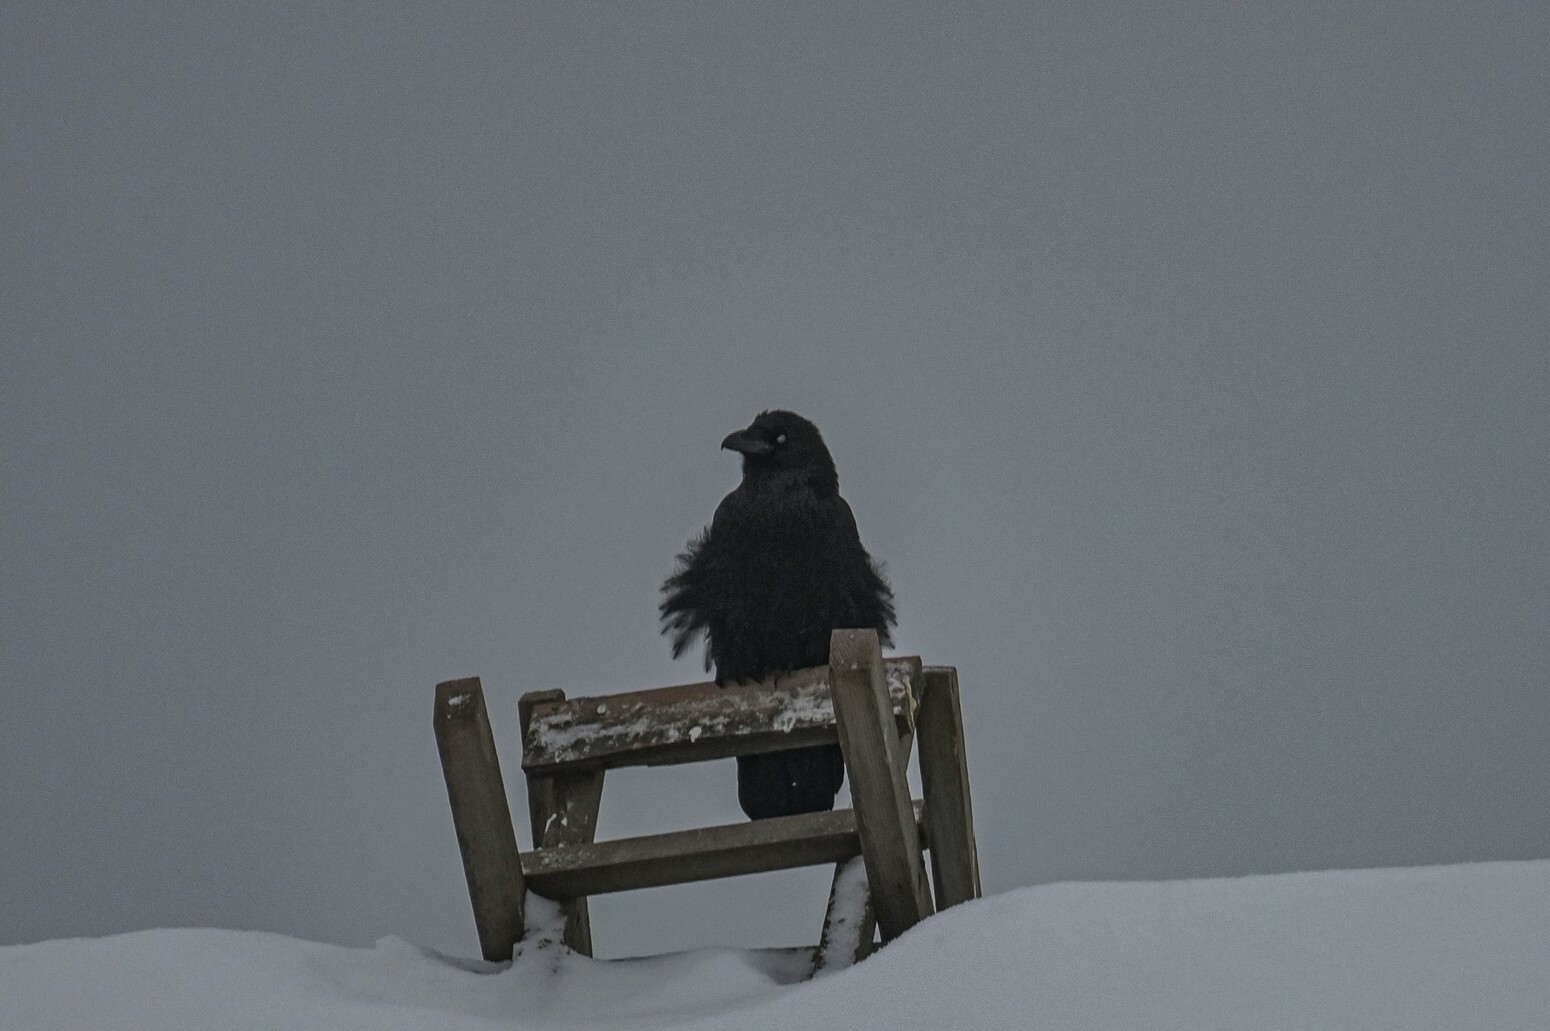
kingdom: Animalia
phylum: Chordata
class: Aves
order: Passeriformes
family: Corvidae
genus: Corvus
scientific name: Corvus corax
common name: Common raven
